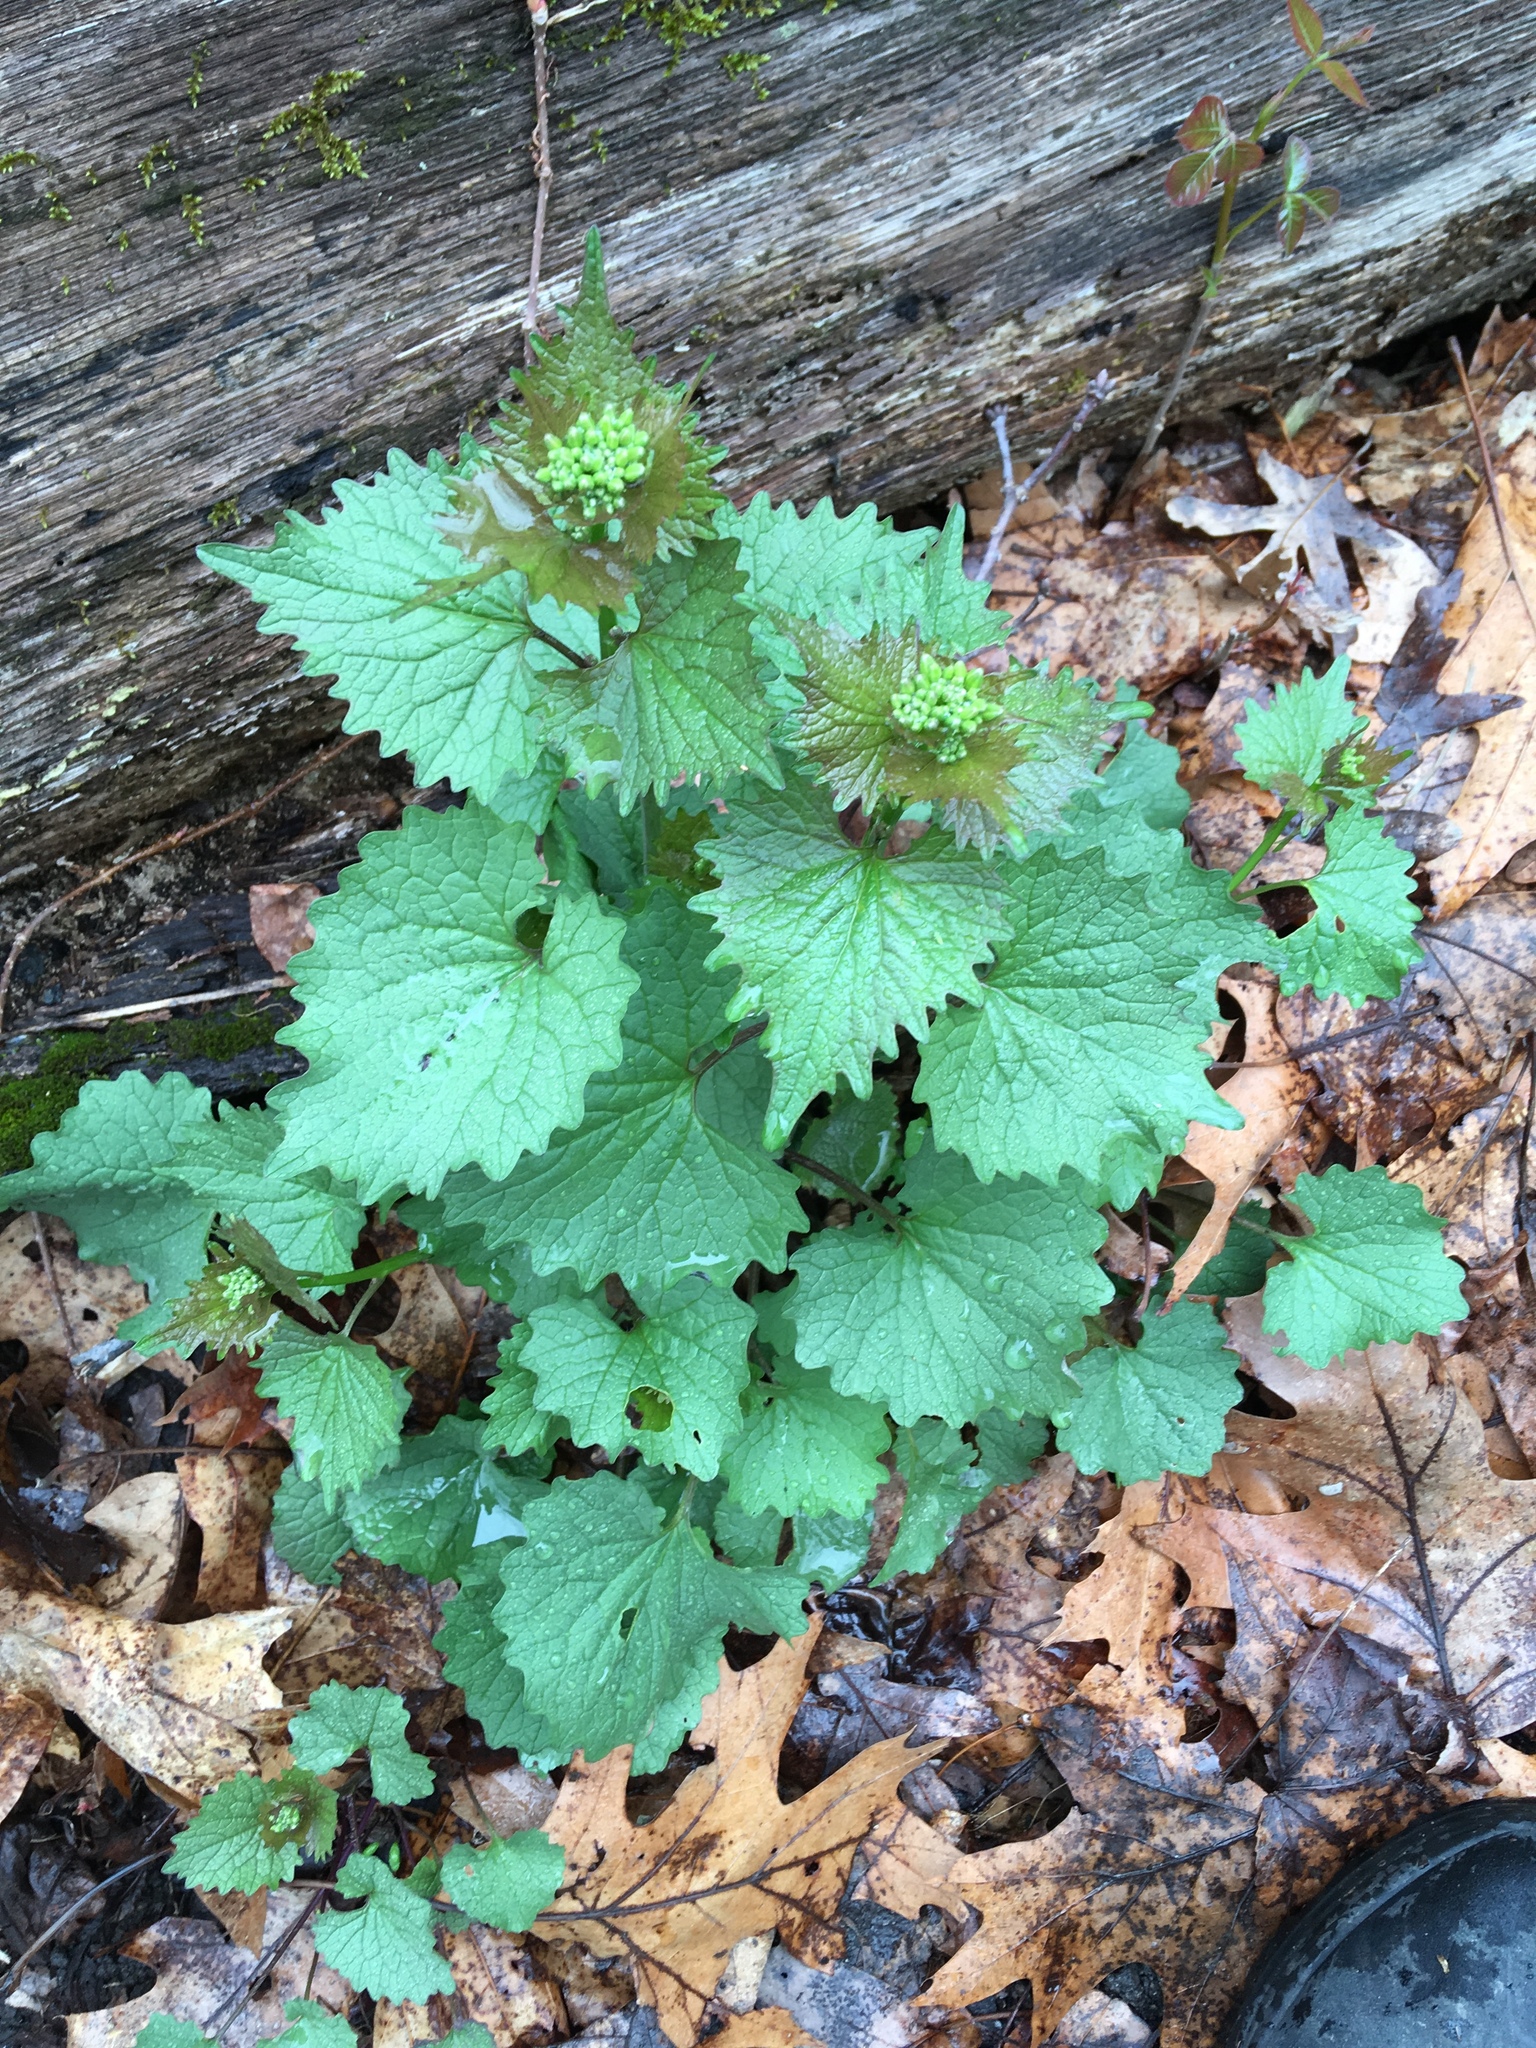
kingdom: Plantae
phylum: Tracheophyta
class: Magnoliopsida
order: Brassicales
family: Brassicaceae
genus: Alliaria
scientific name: Alliaria petiolata
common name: Garlic mustard
